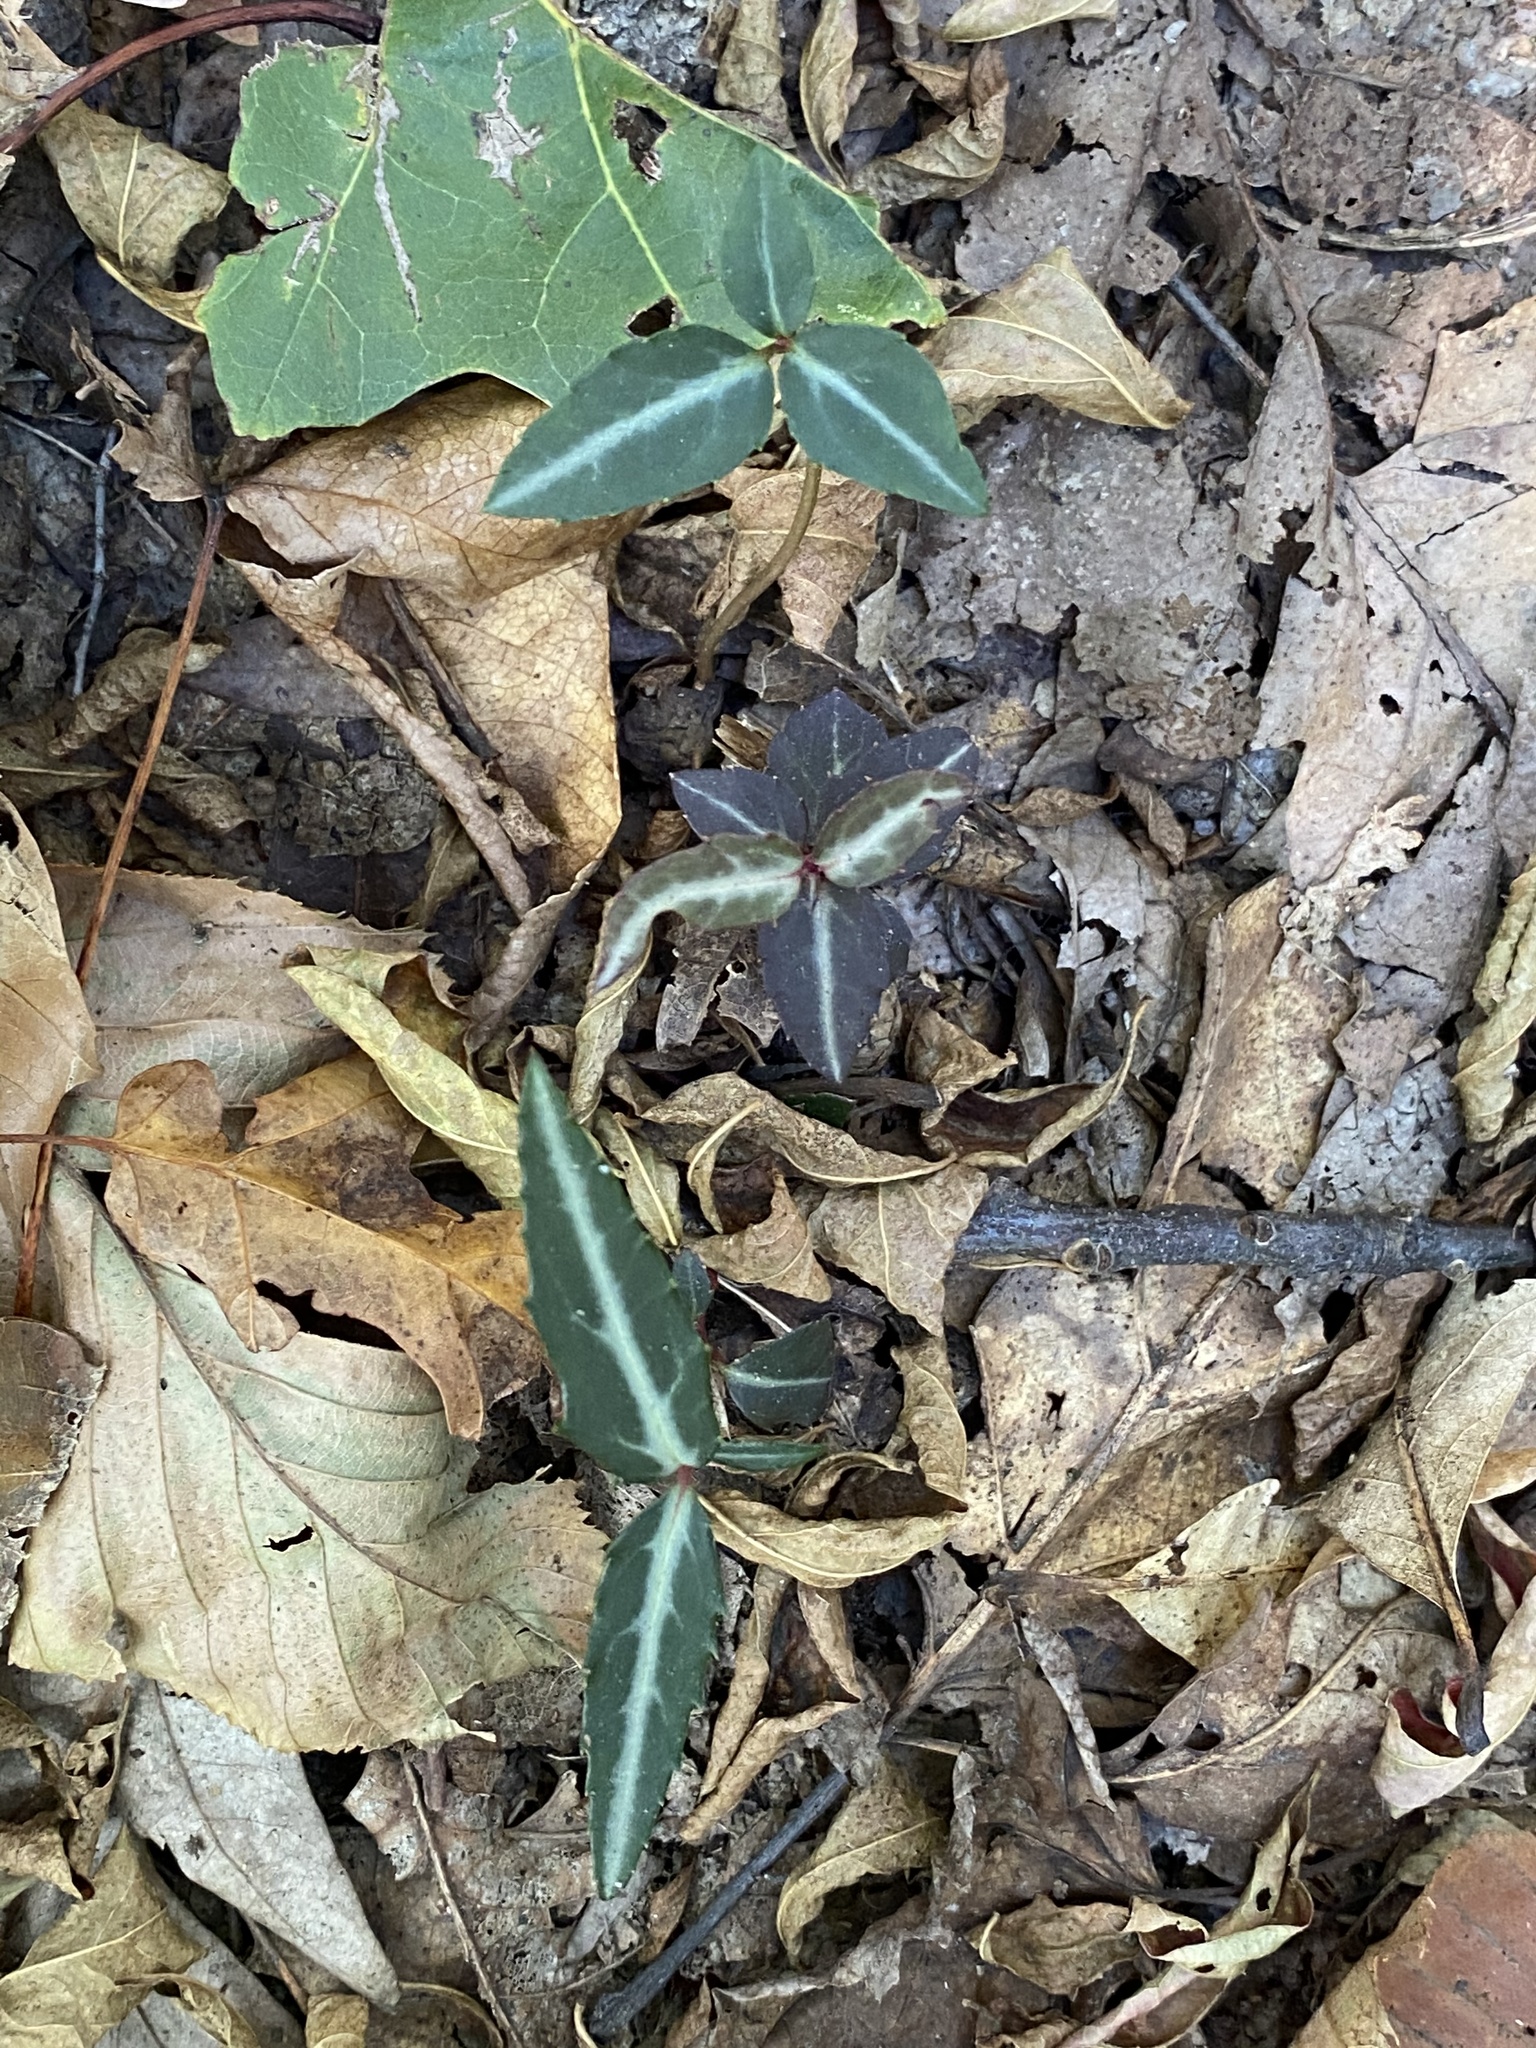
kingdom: Plantae
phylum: Tracheophyta
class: Magnoliopsida
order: Ericales
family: Ericaceae
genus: Chimaphila
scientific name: Chimaphila maculata
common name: Spotted pipsissewa
